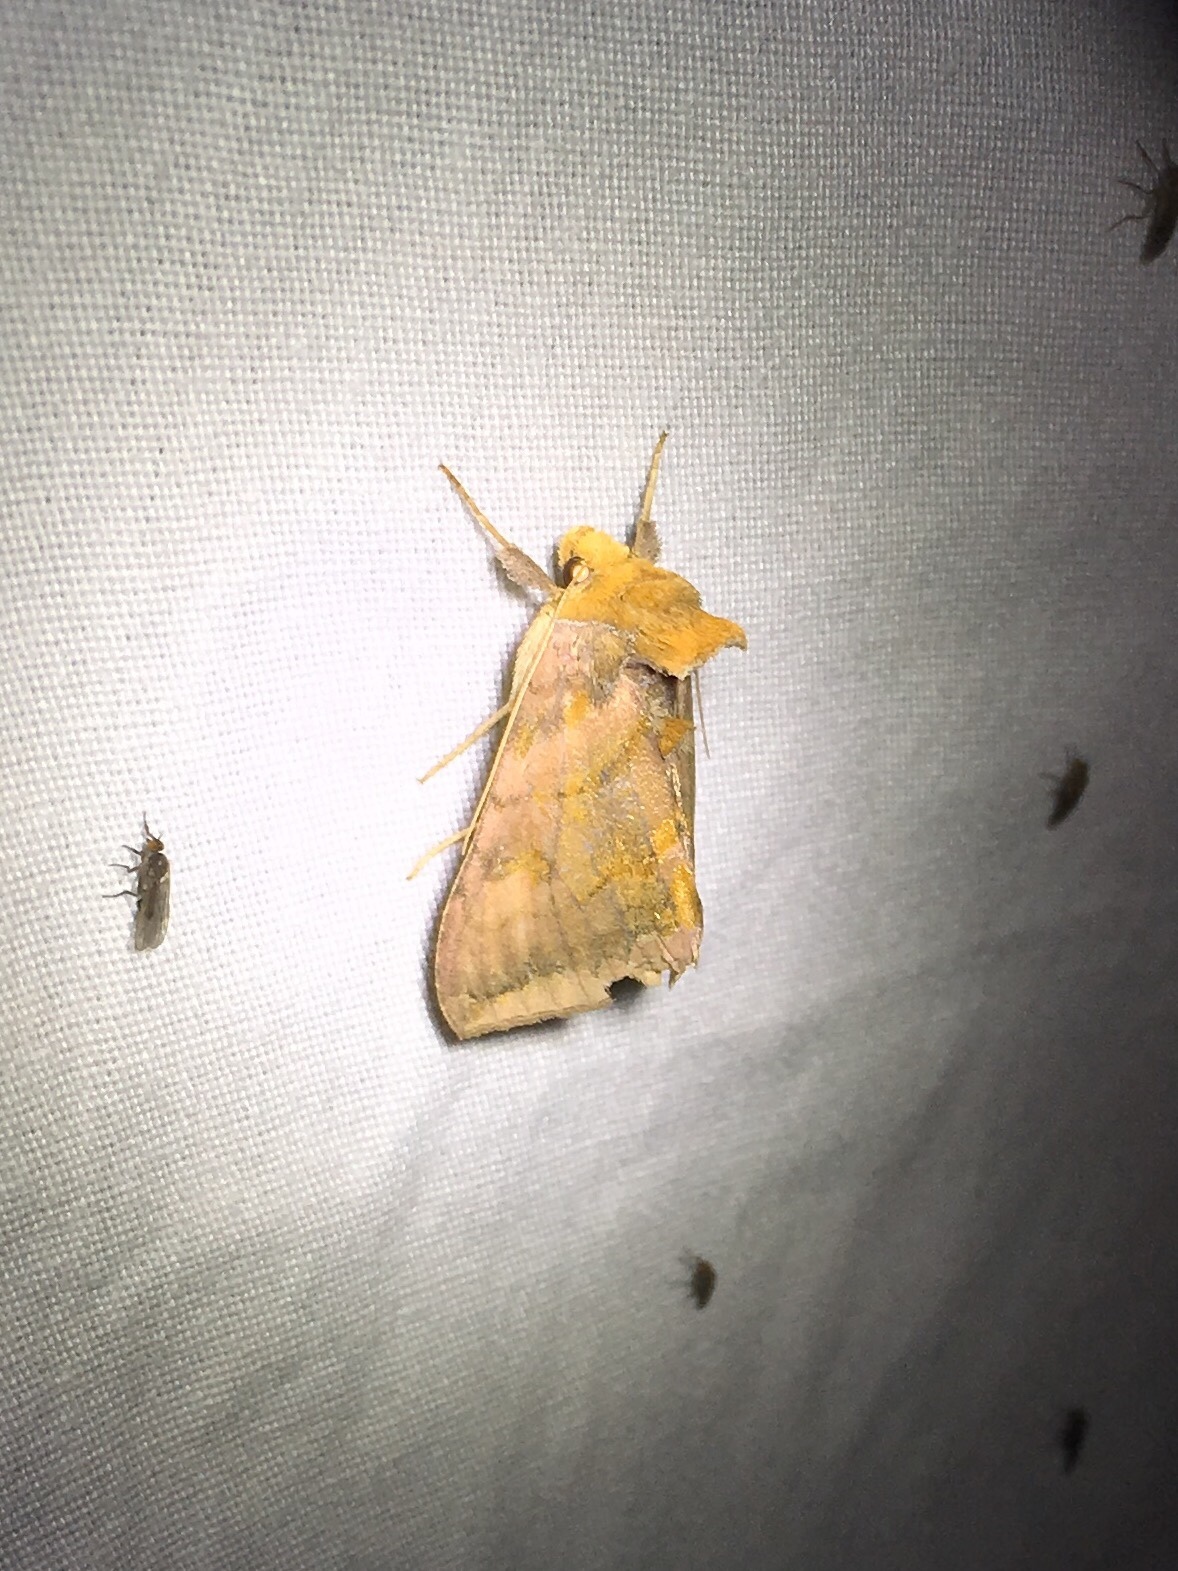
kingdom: Animalia
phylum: Arthropoda
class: Insecta
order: Lepidoptera
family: Noctuidae
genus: Allagrapha
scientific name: Allagrapha aerea
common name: Unspotted looper moth
